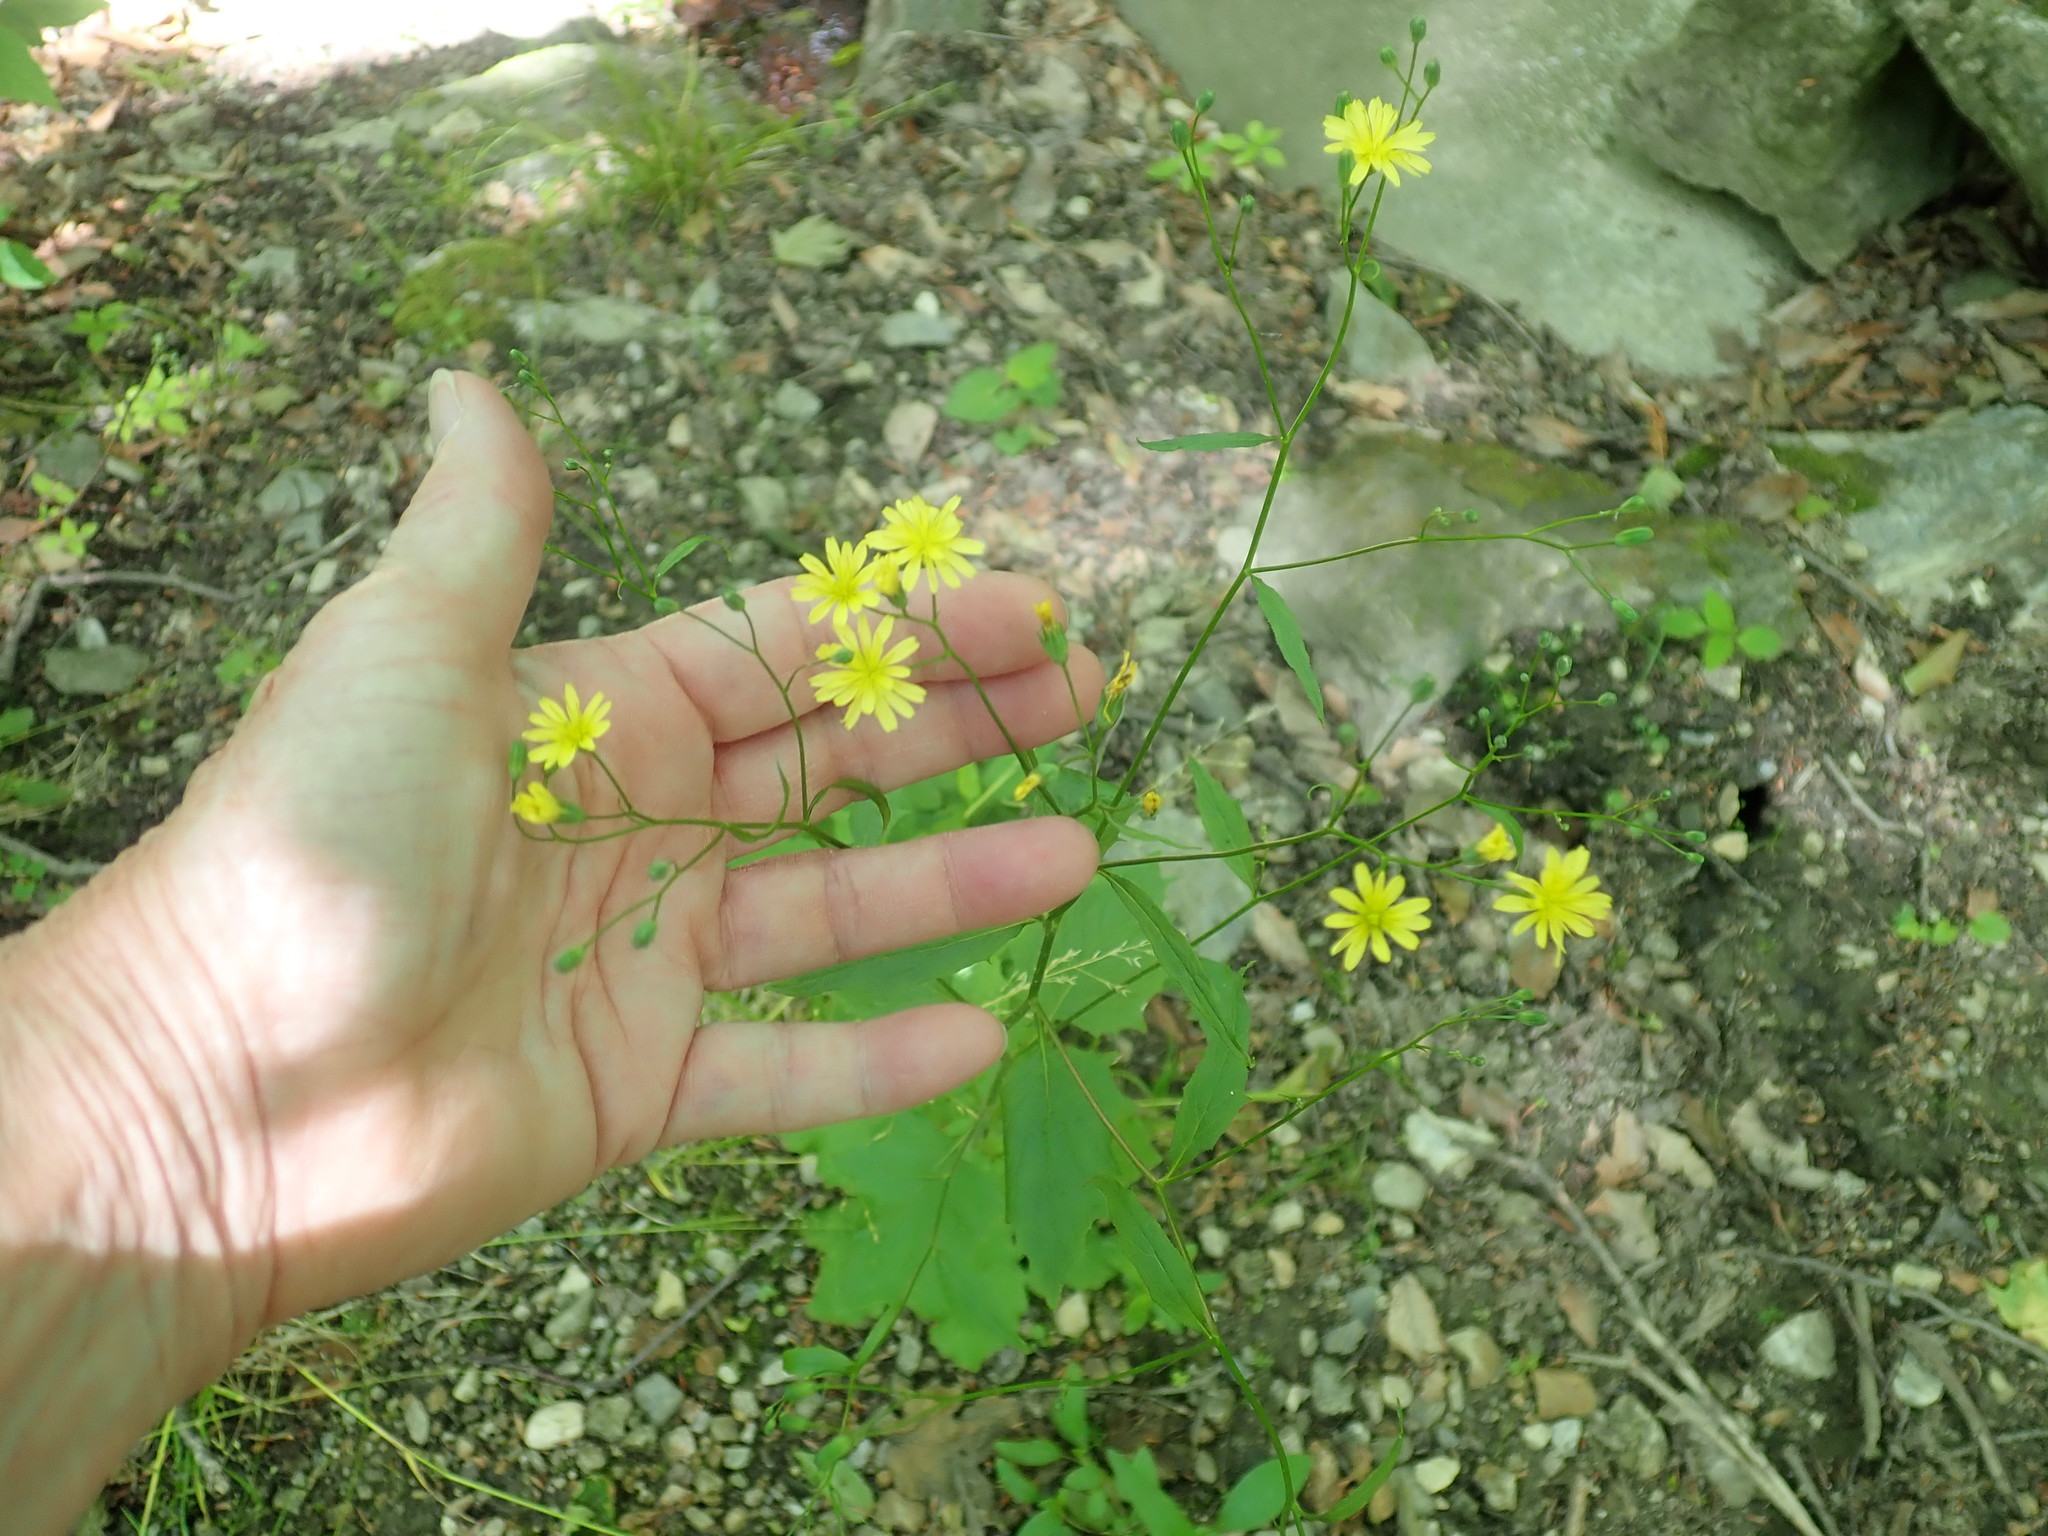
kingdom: Plantae
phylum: Tracheophyta
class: Magnoliopsida
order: Asterales
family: Asteraceae
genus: Lapsana
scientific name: Lapsana communis
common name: Nipplewort
